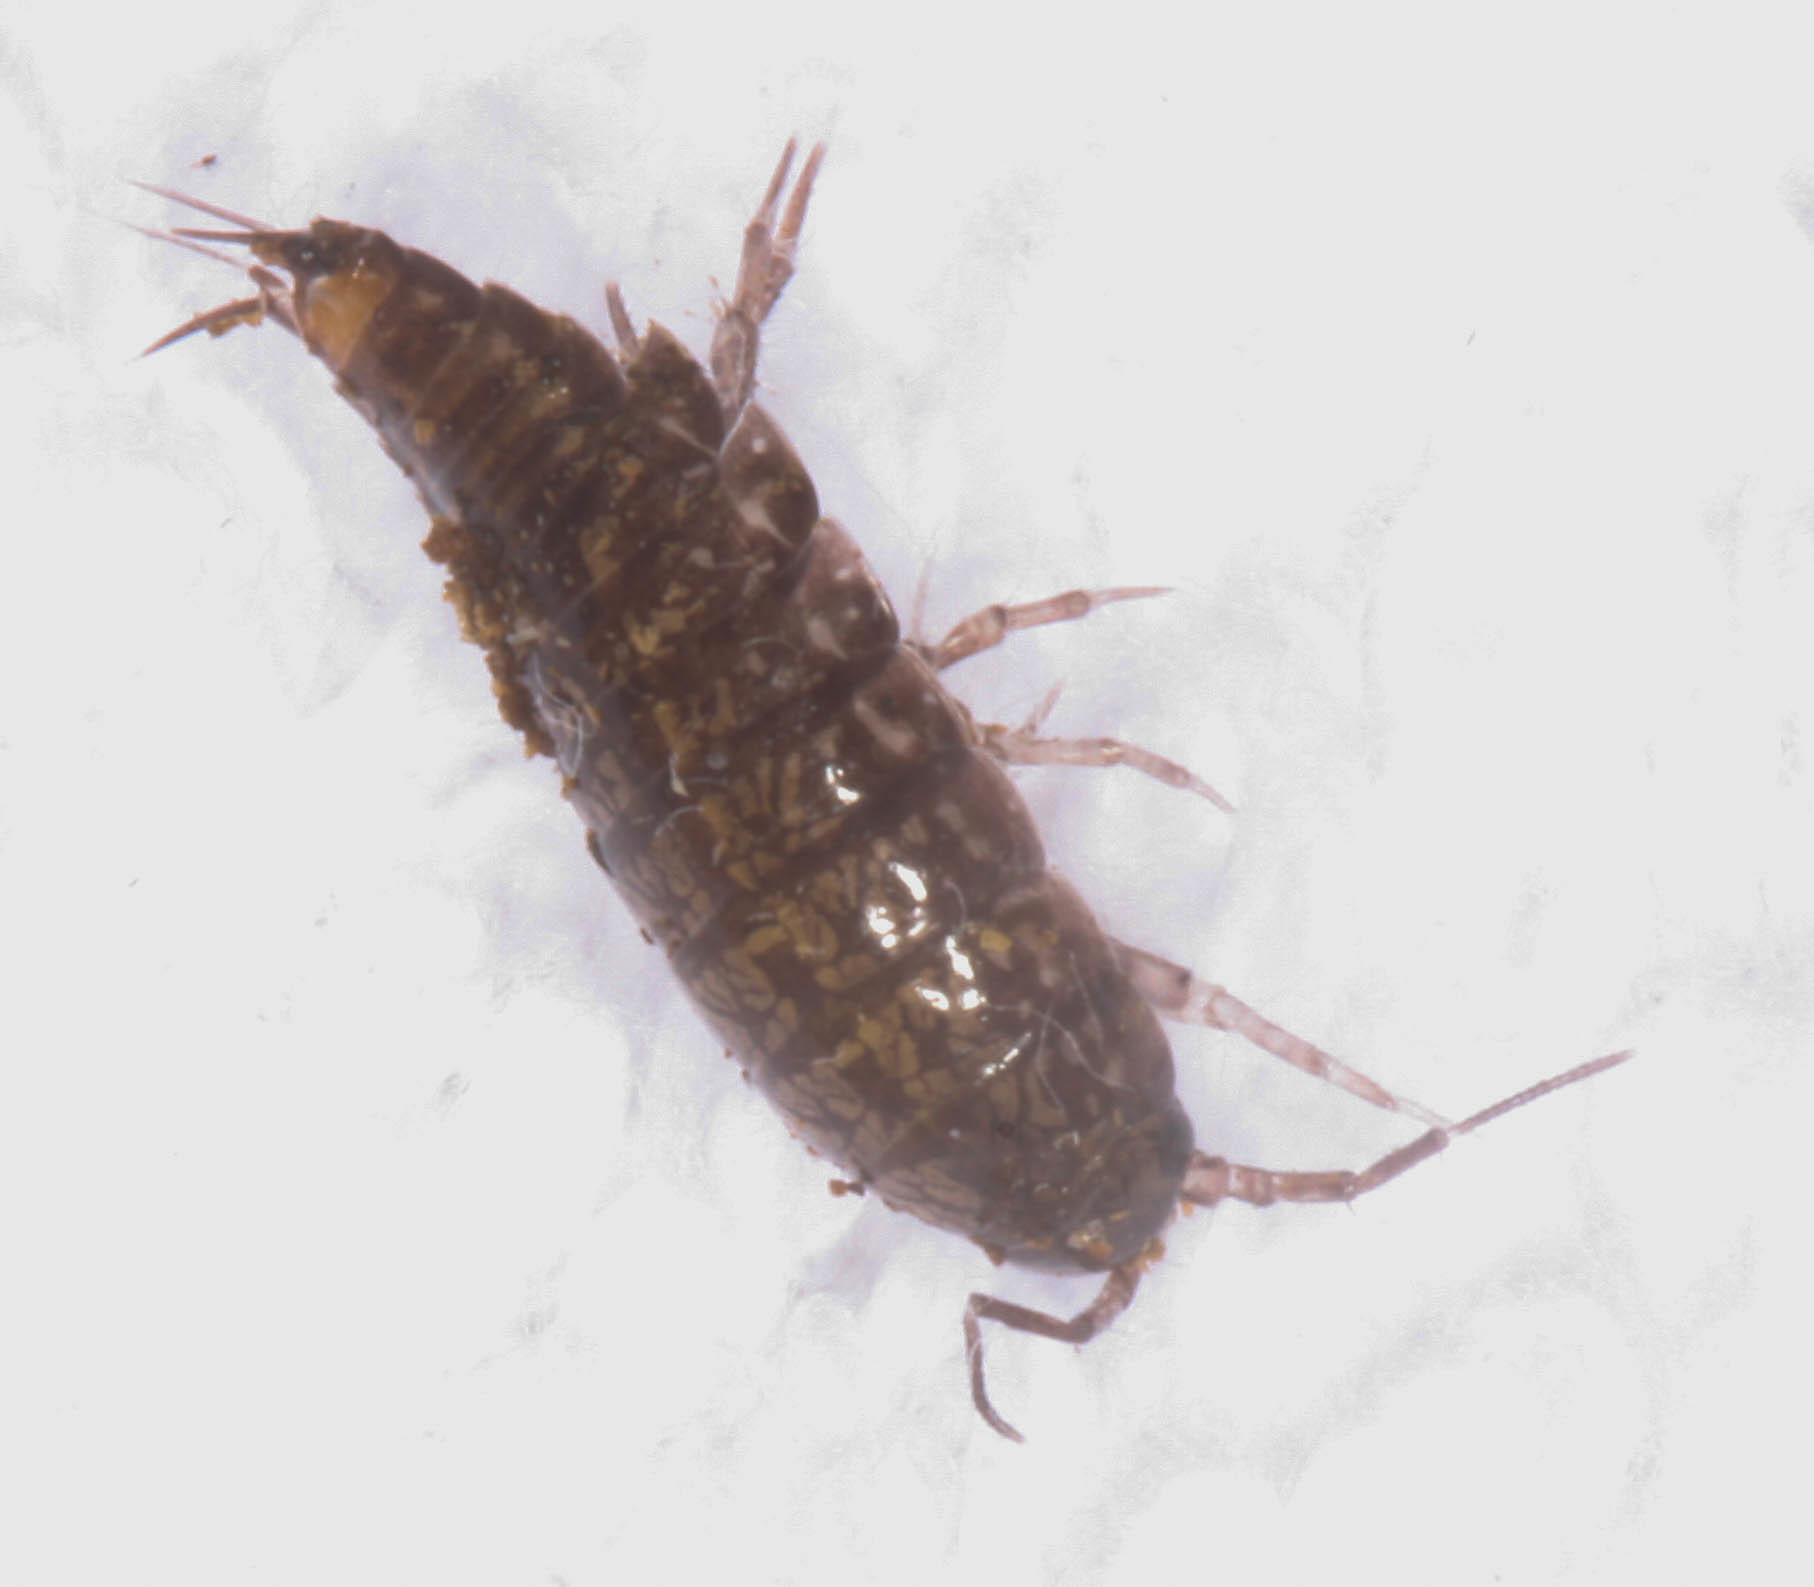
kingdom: Animalia
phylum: Arthropoda
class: Malacostraca
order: Isopoda
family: Ligiidae
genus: Ligidium
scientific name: Ligidium gracile
